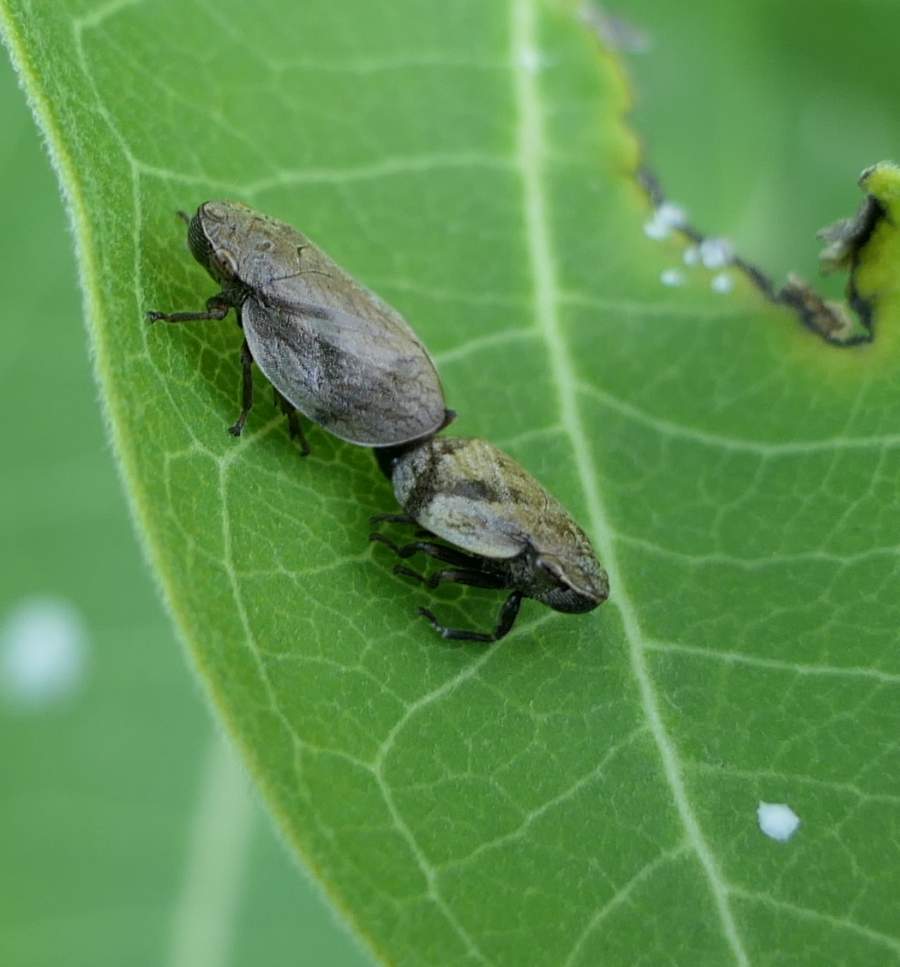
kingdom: Animalia
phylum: Arthropoda
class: Insecta
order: Hemiptera
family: Aphrophoridae
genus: Lepyronia
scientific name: Lepyronia coleoptrata
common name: Leafhopper
